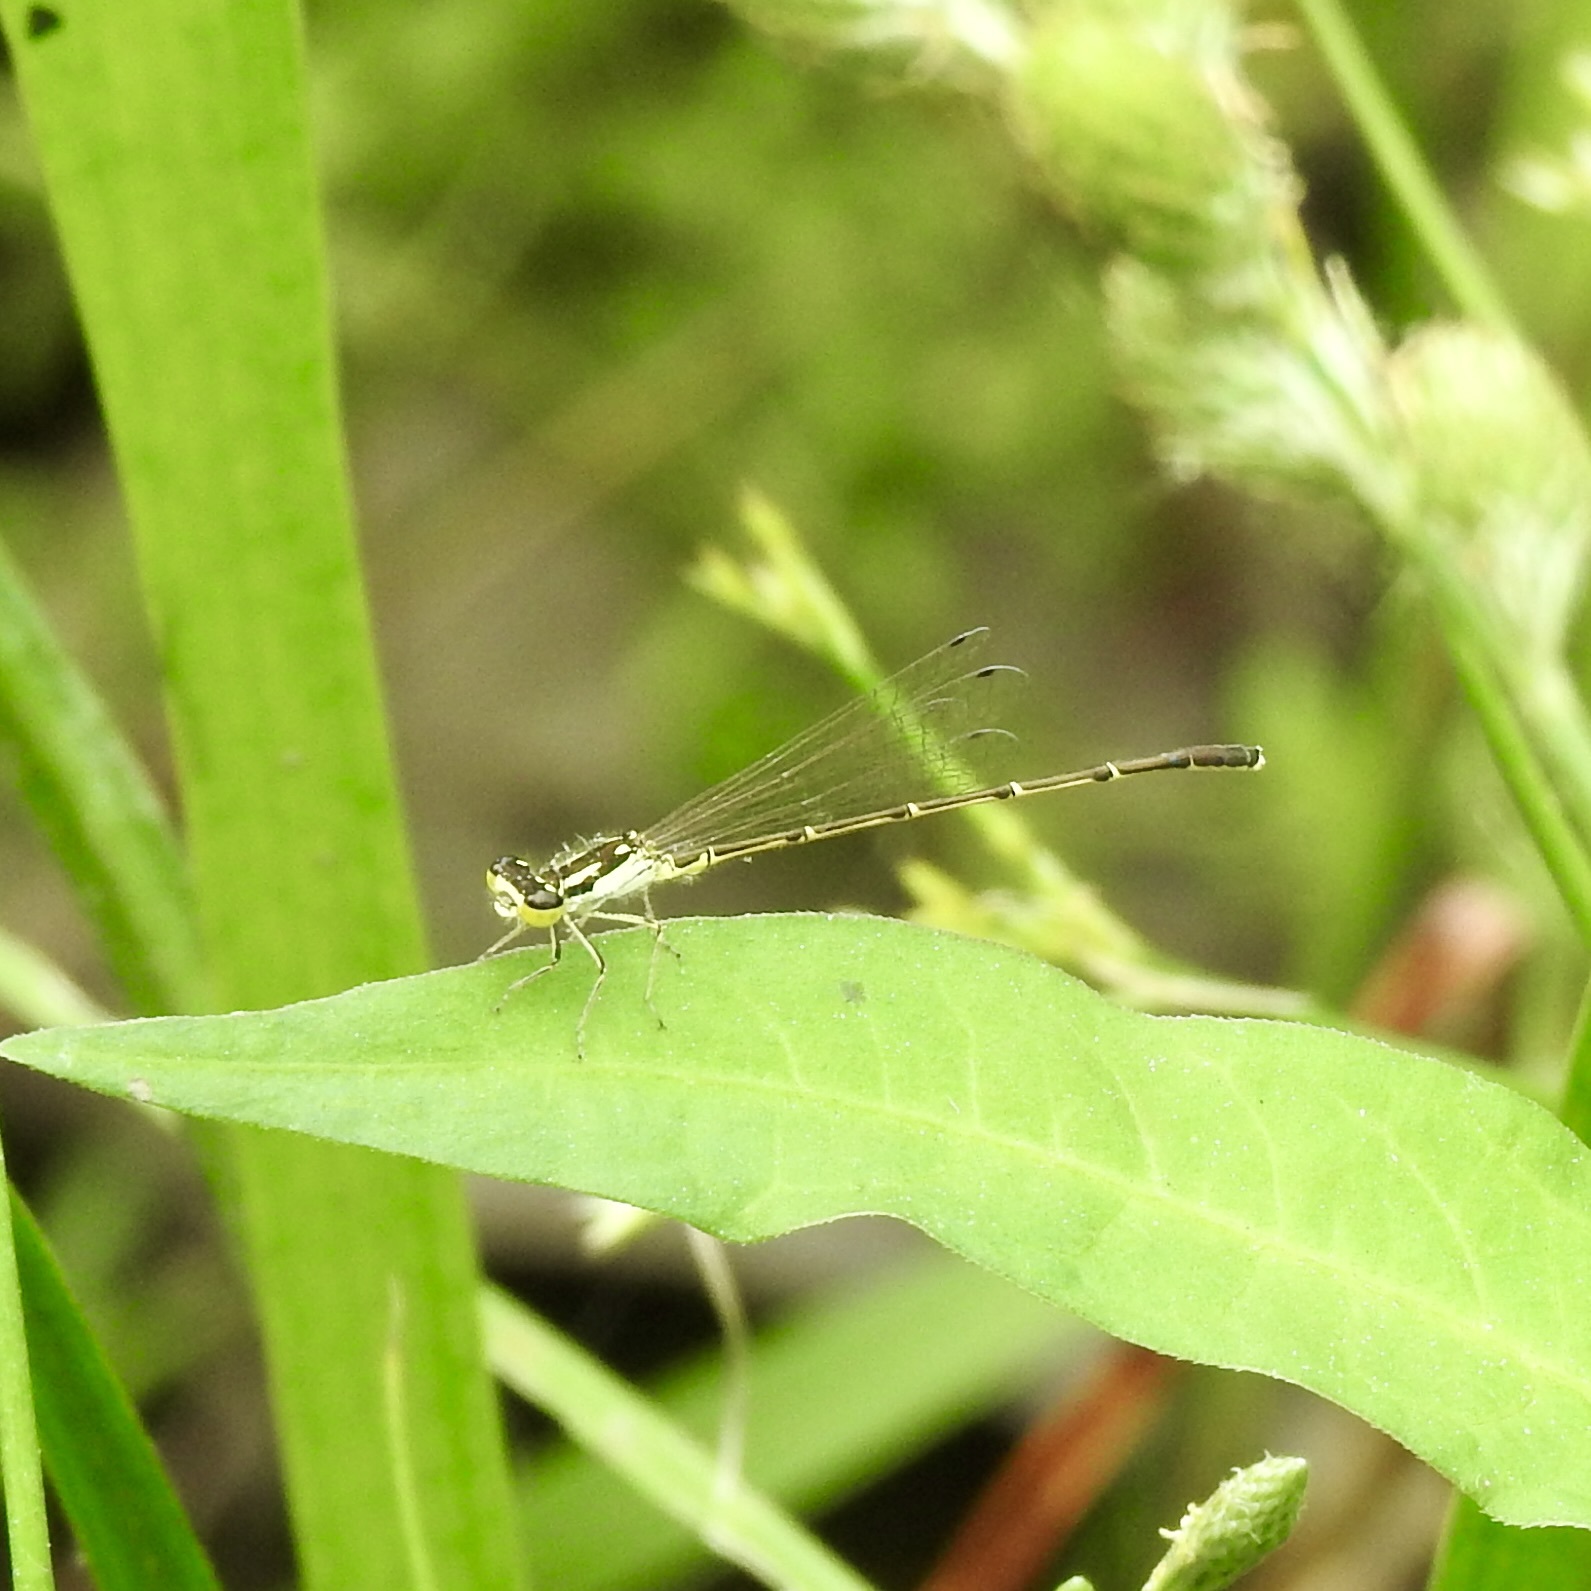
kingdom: Animalia
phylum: Arthropoda
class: Insecta
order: Odonata
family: Coenagrionidae
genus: Ischnura
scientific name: Ischnura posita
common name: Fragile forktail
